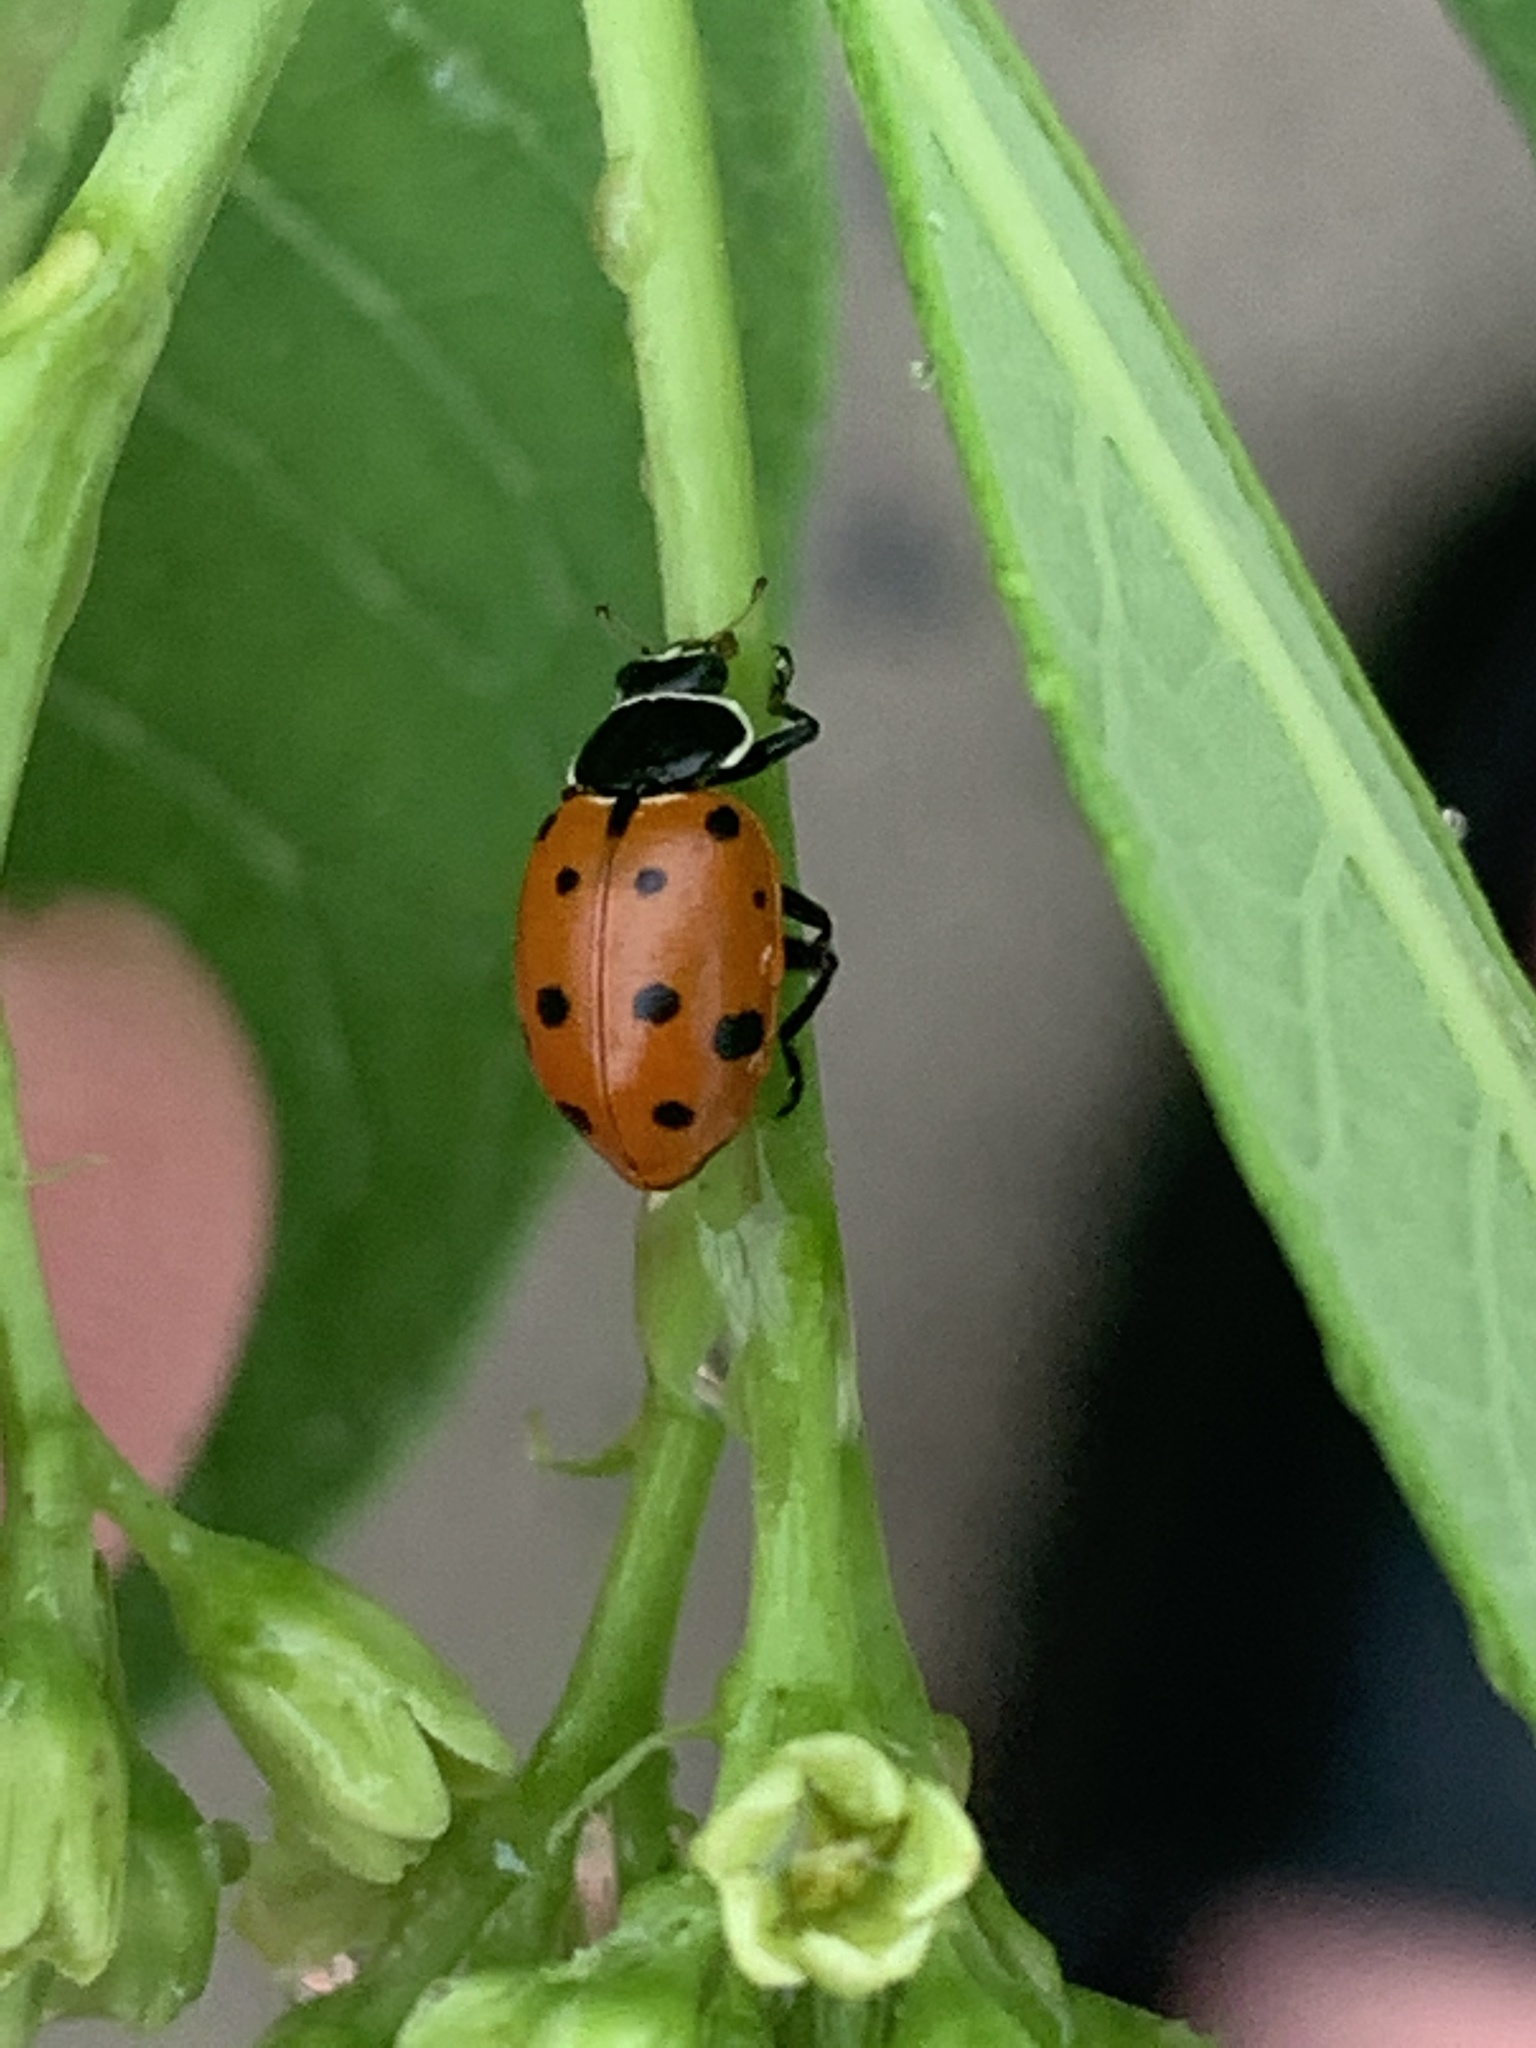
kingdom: Animalia
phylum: Arthropoda
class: Insecta
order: Coleoptera
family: Coccinellidae
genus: Hippodamia
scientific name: Hippodamia
